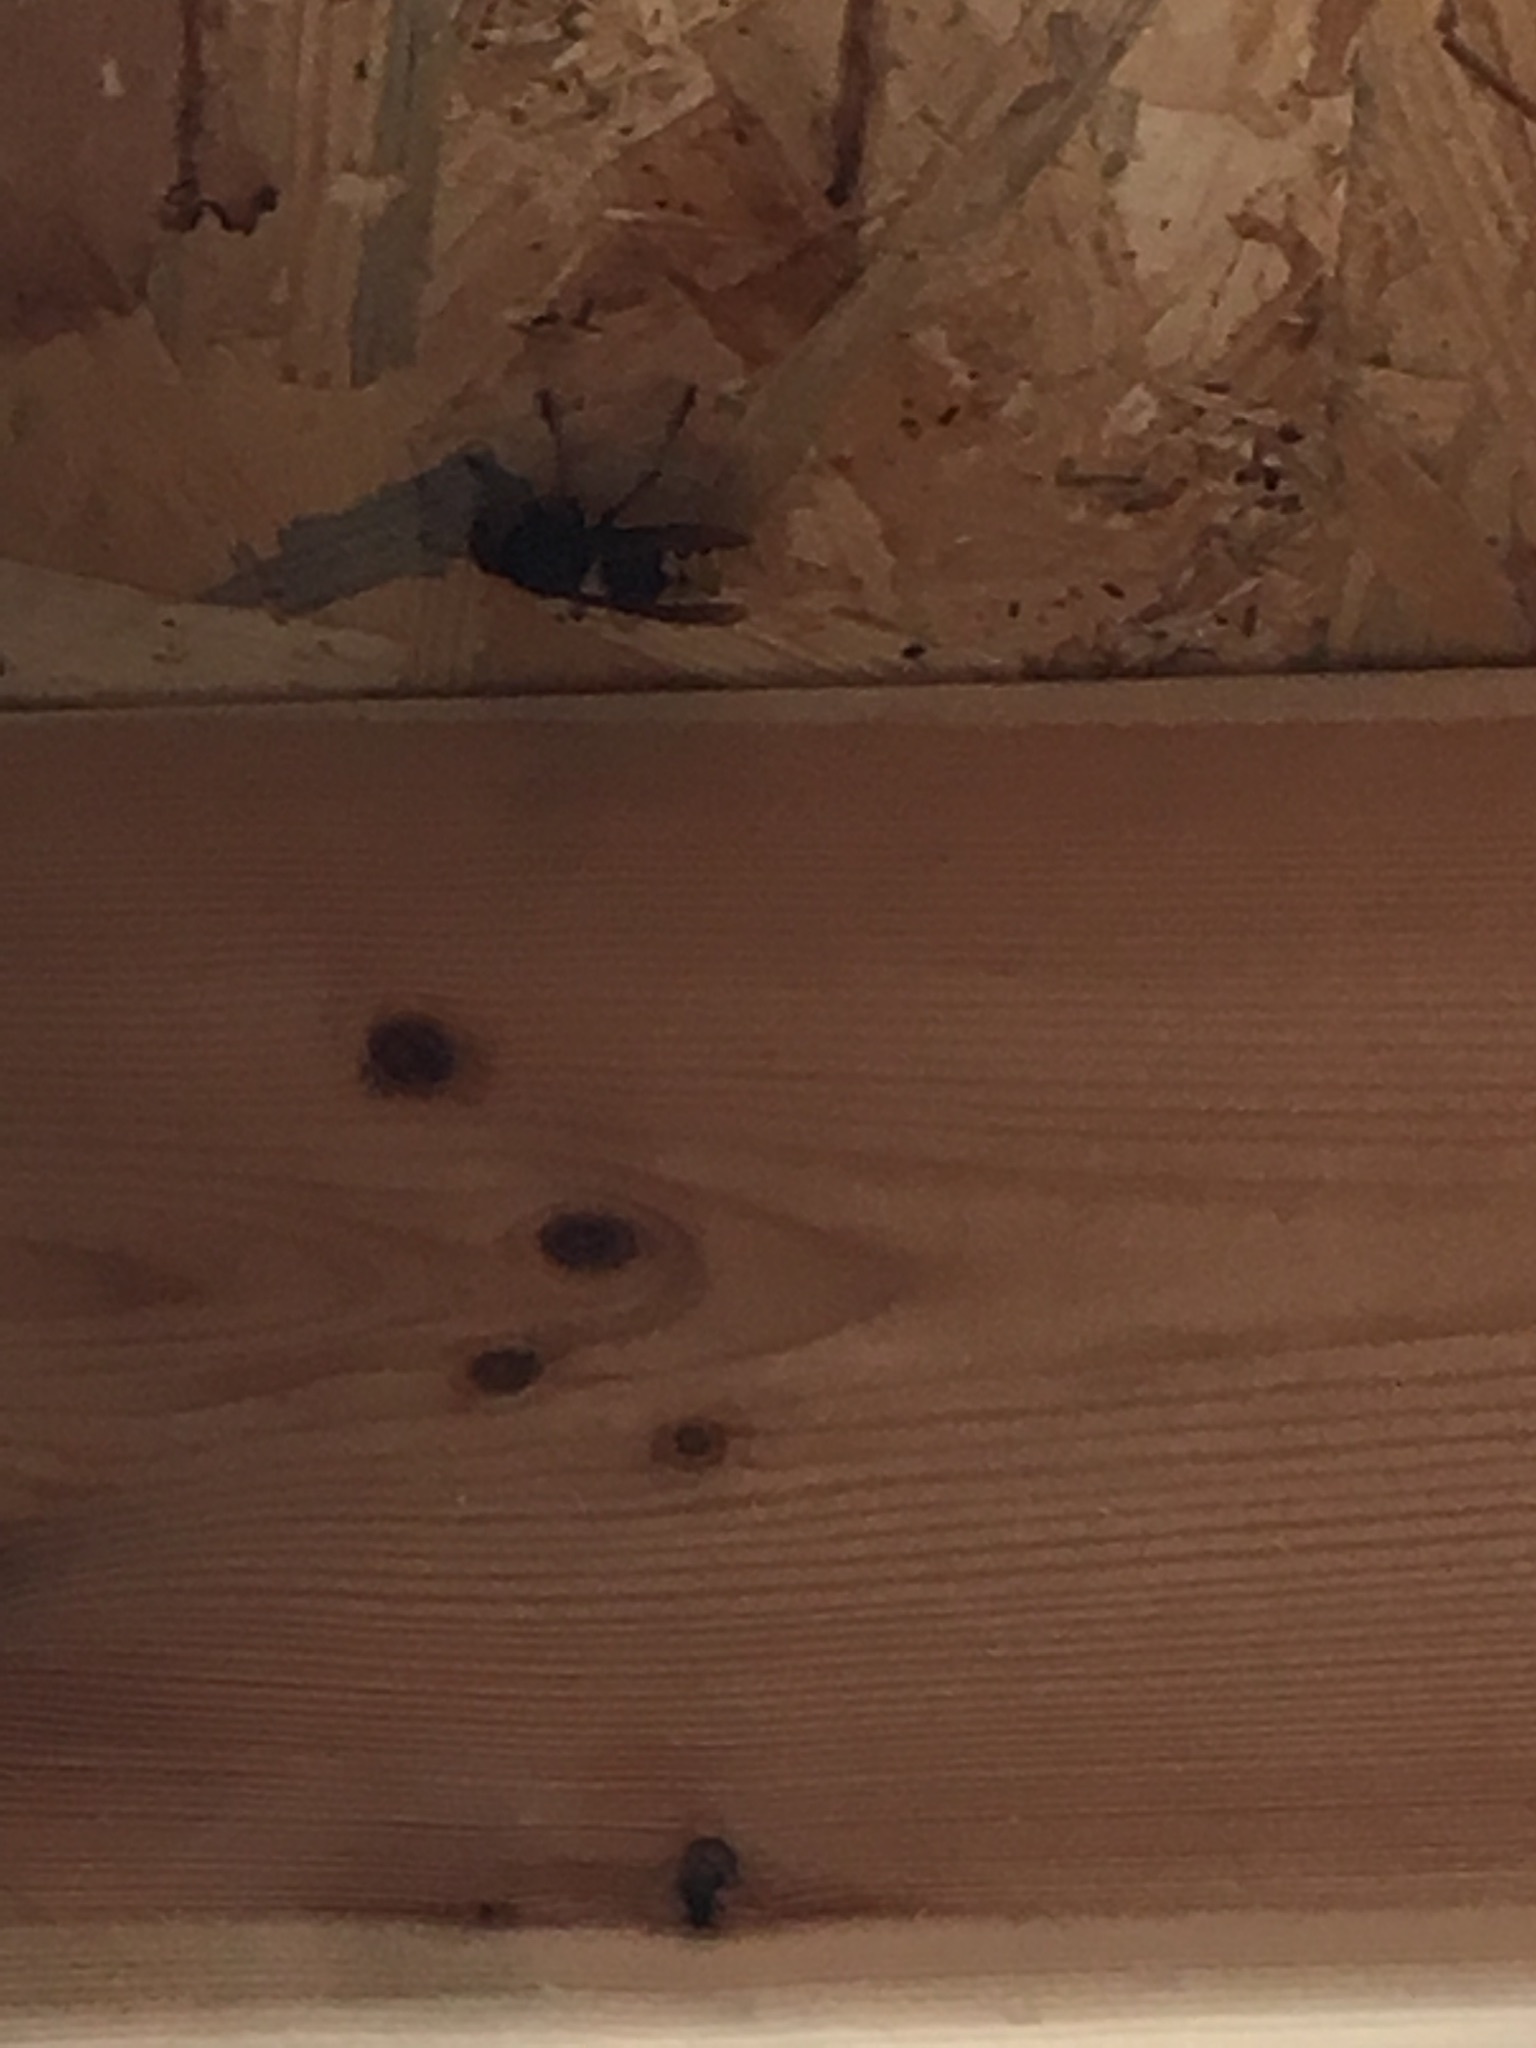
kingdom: Animalia
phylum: Arthropoda
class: Insecta
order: Hymenoptera
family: Vespidae
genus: Vespa
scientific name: Vespa crabro
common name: Hornet
